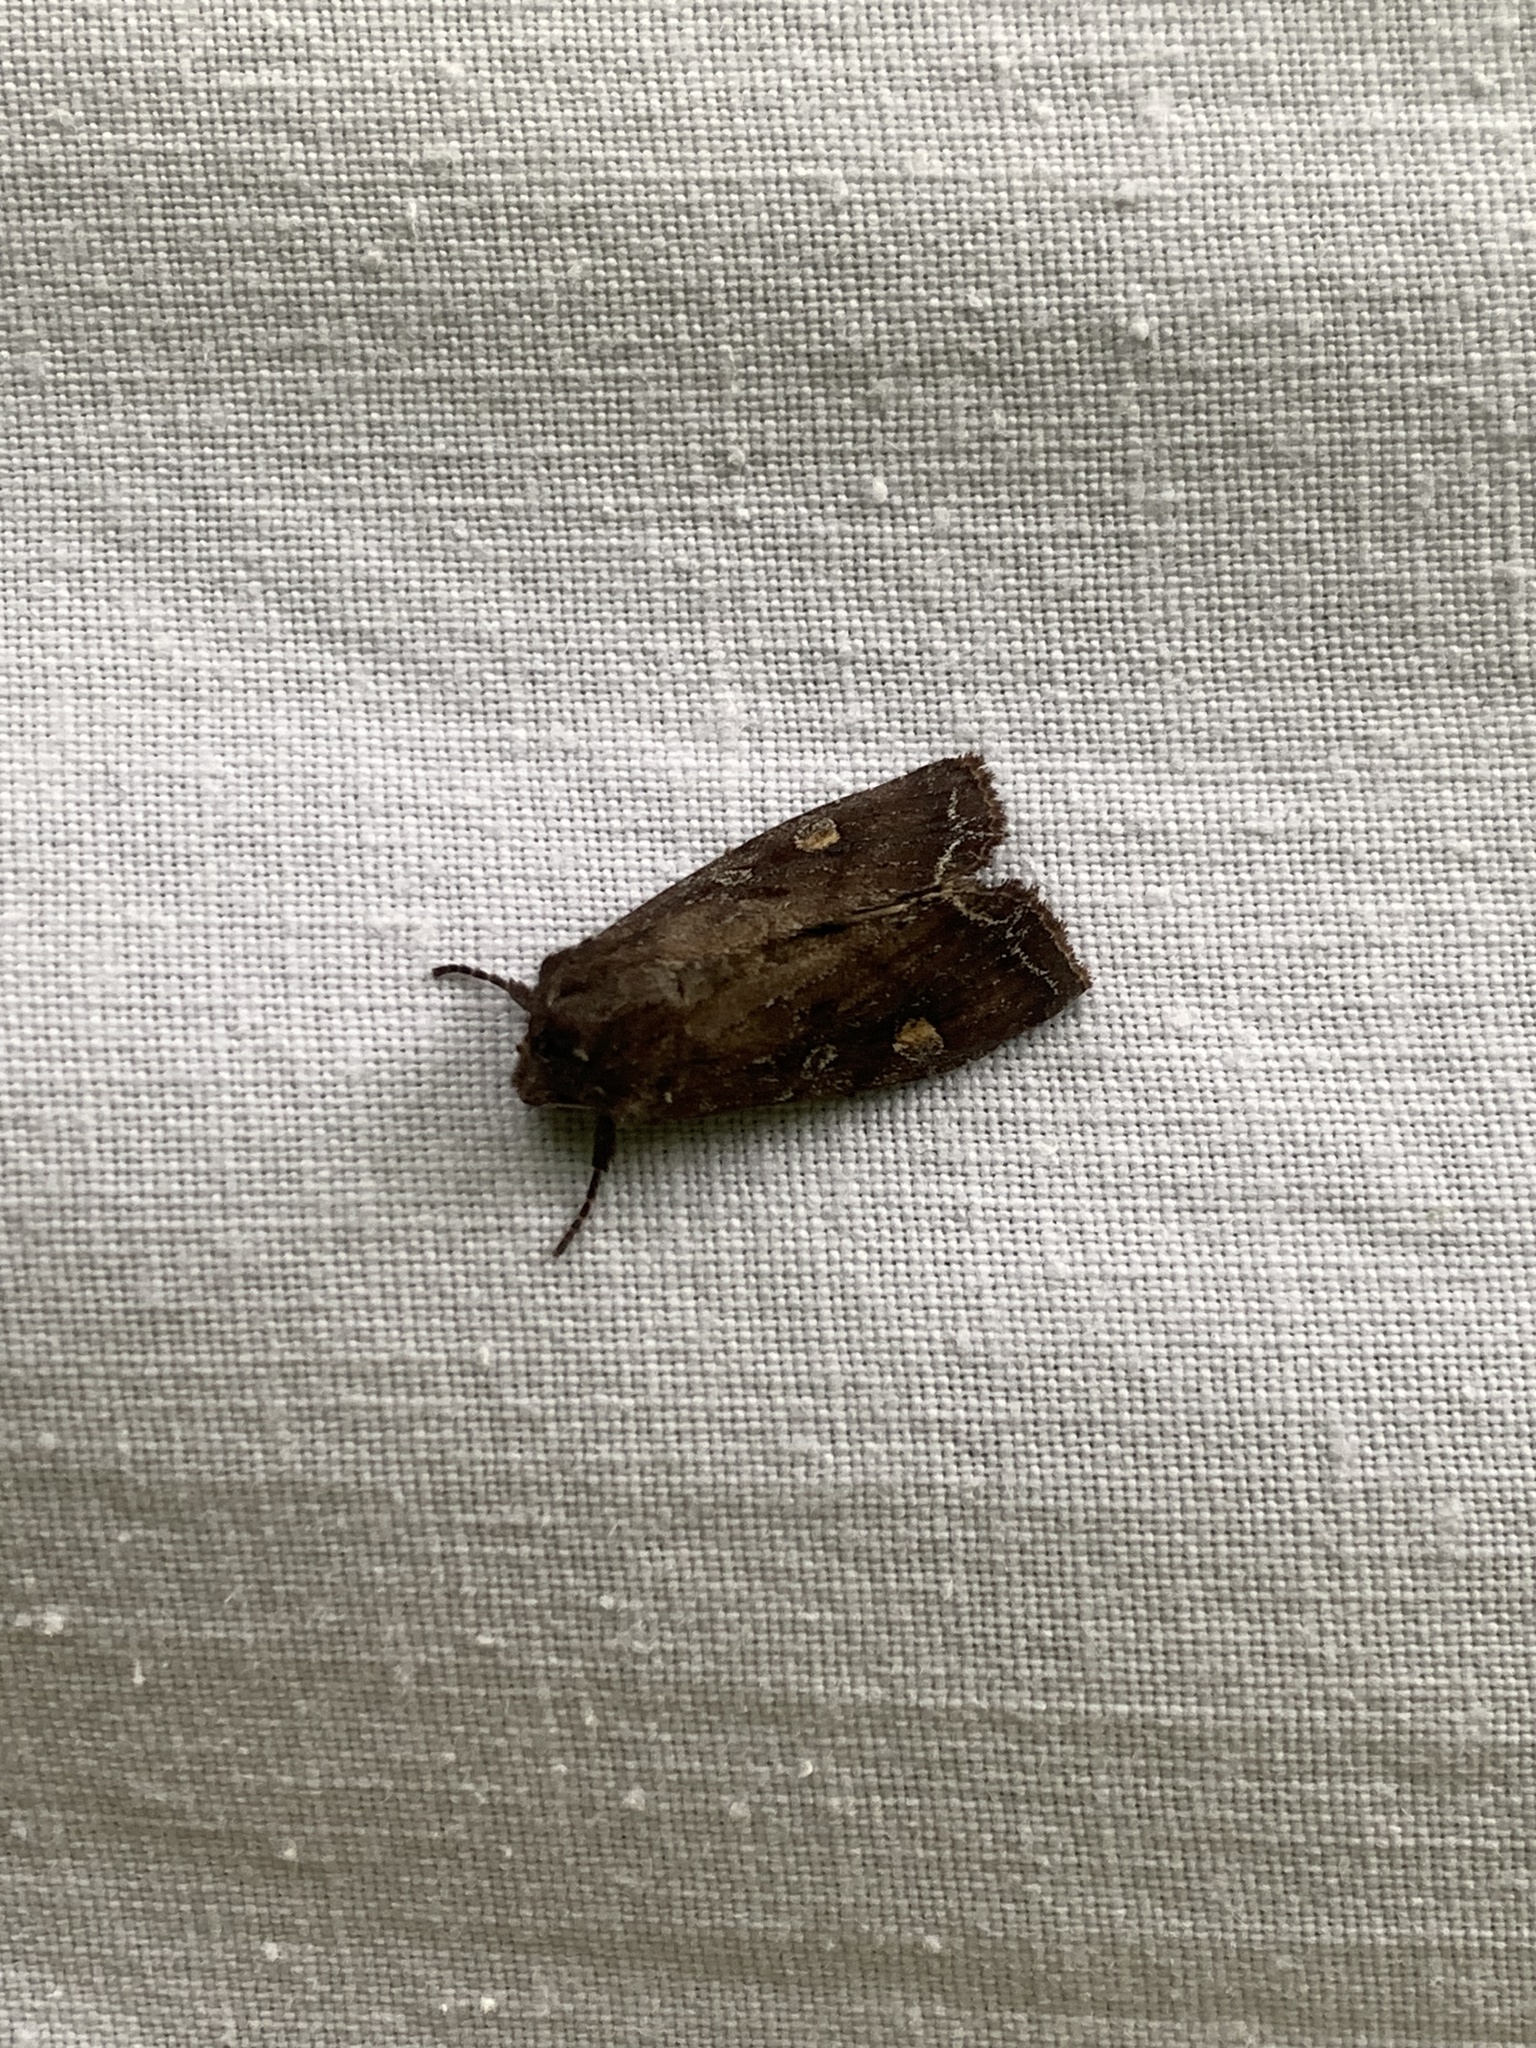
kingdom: Animalia
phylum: Arthropoda
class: Insecta
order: Lepidoptera
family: Noctuidae
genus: Lacanobia
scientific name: Lacanobia oleracea
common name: Bright-line brown-eye
